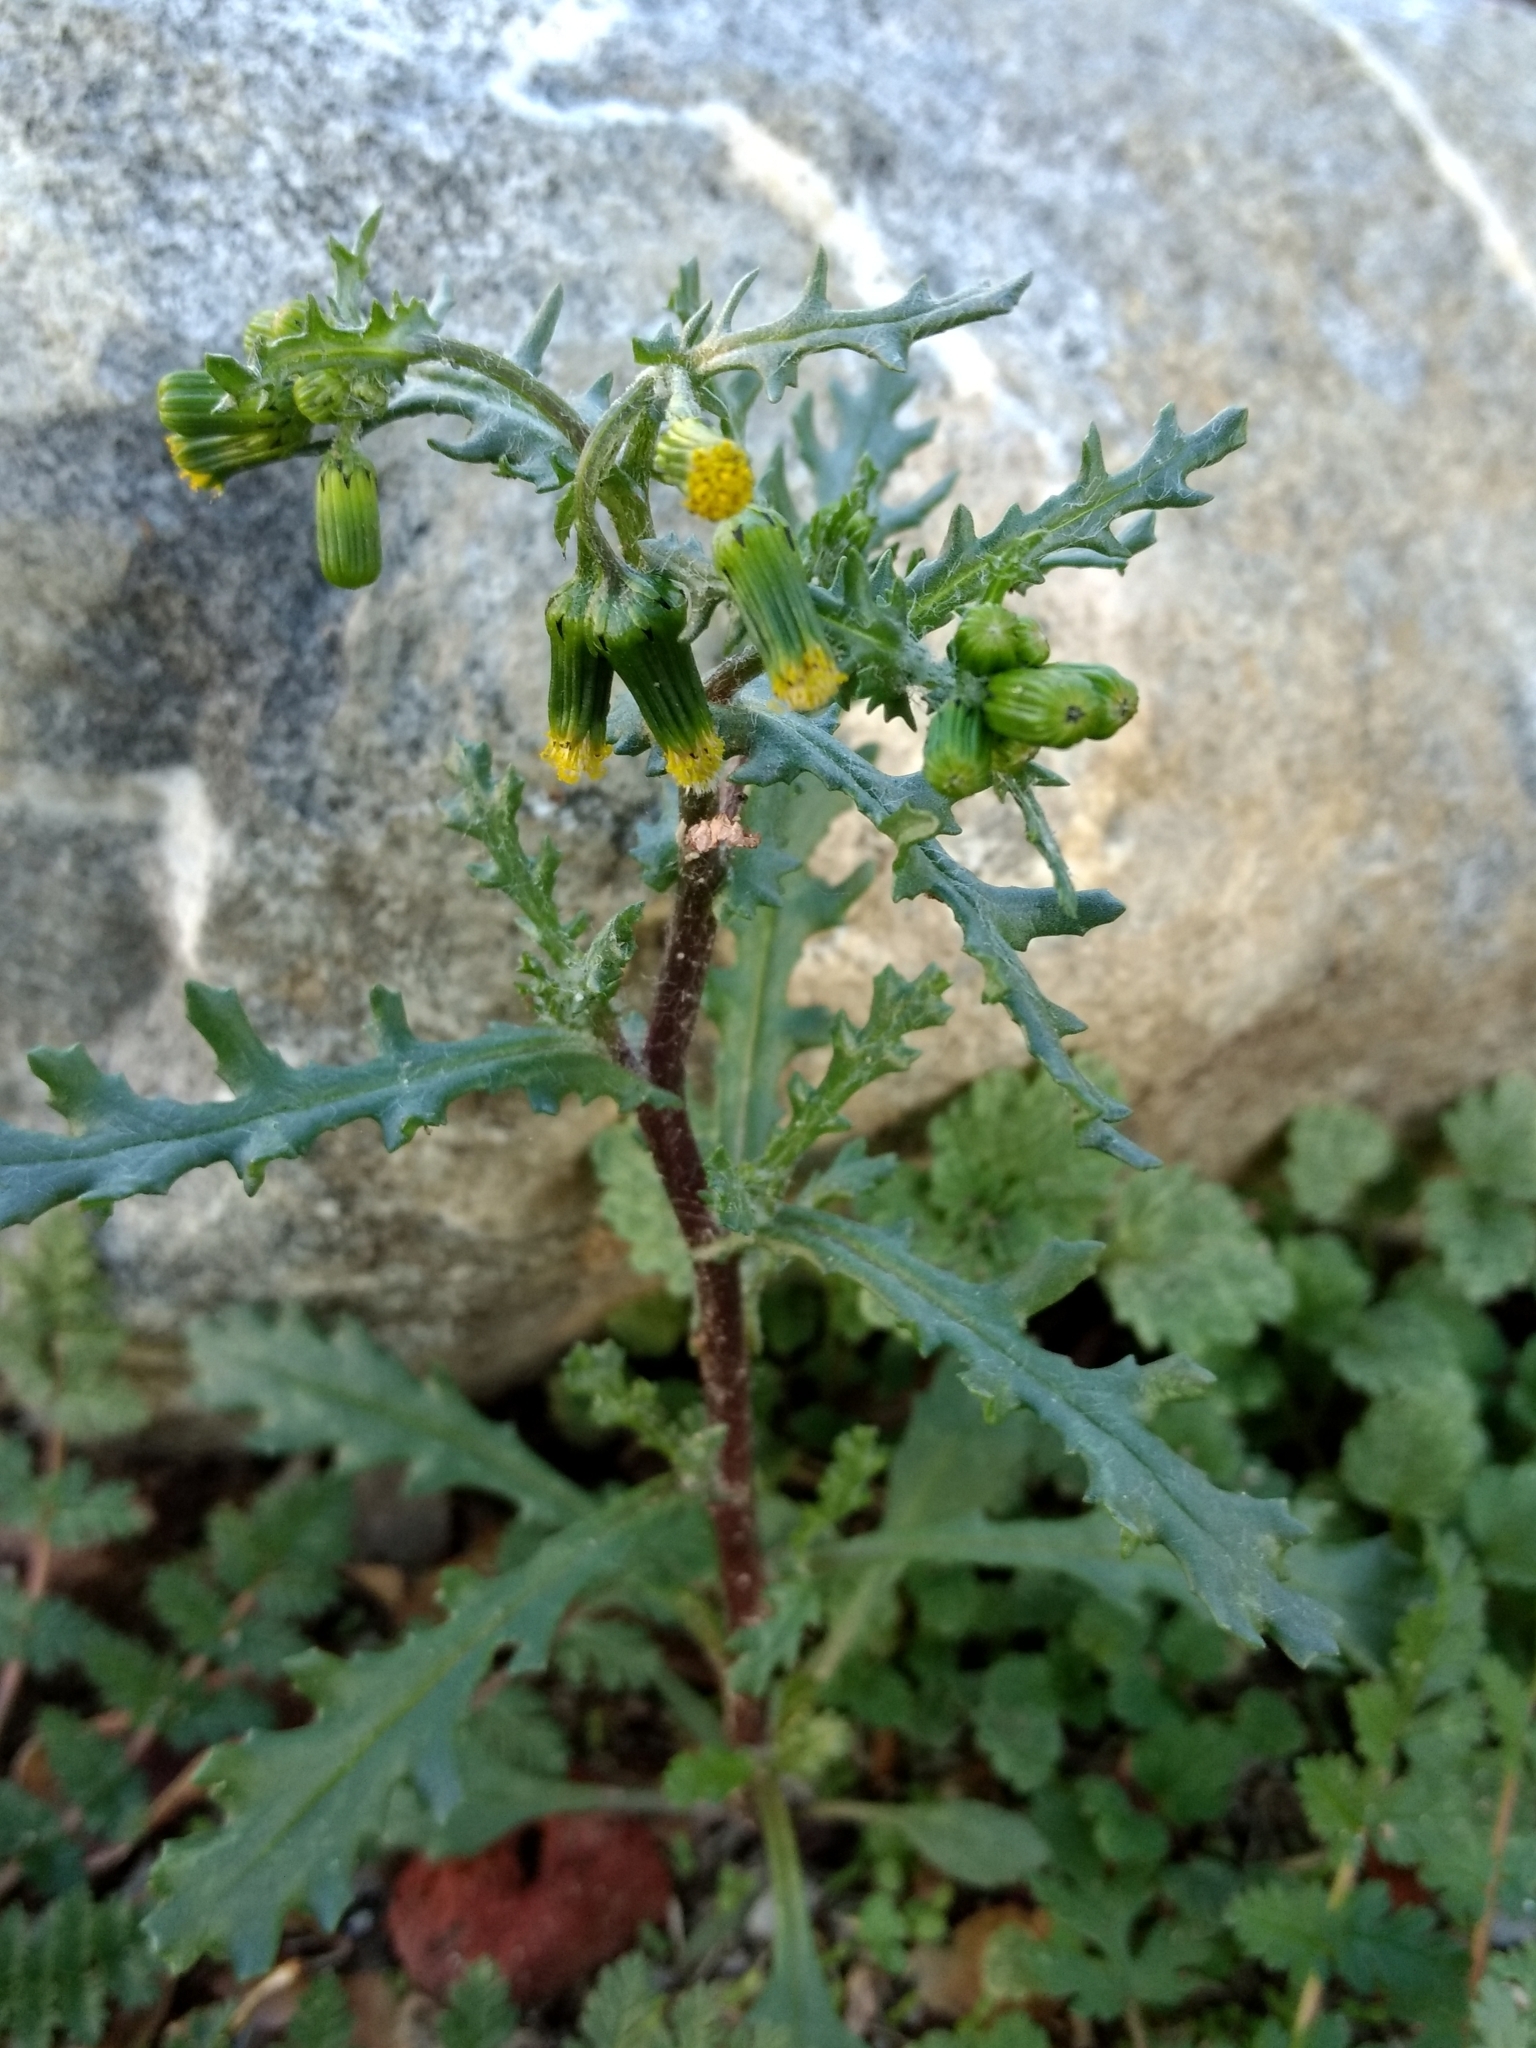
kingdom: Plantae
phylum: Tracheophyta
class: Magnoliopsida
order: Asterales
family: Asteraceae
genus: Senecio
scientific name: Senecio vulgaris
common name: Old-man-in-the-spring
